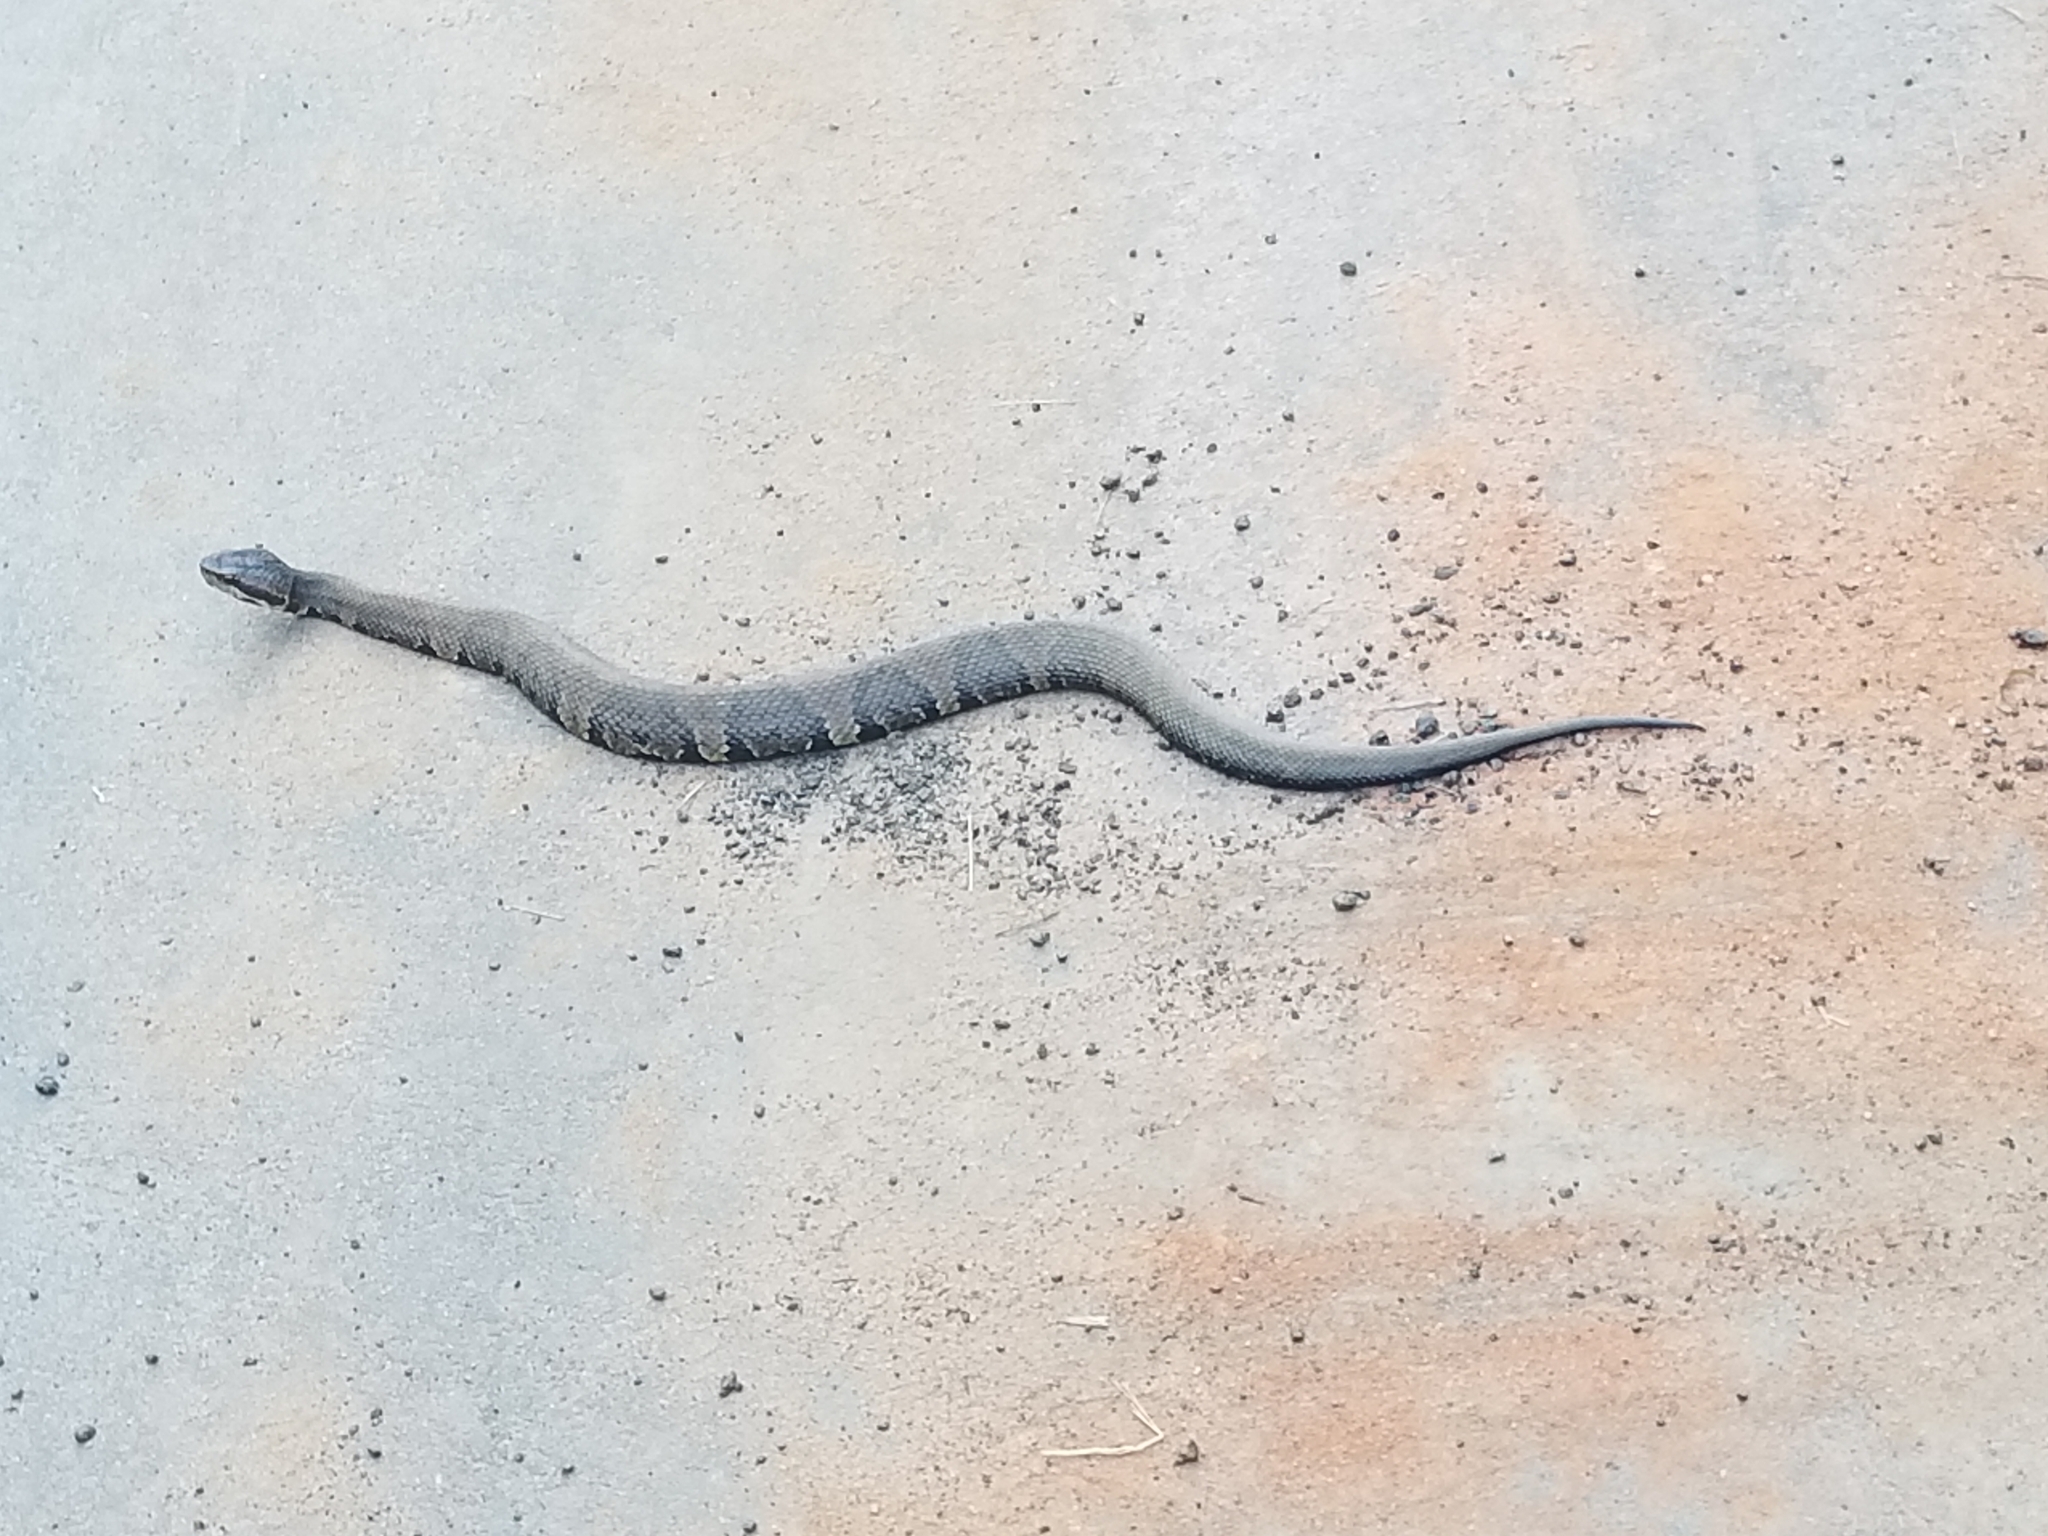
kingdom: Animalia
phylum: Chordata
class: Squamata
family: Viperidae
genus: Agkistrodon
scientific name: Agkistrodon piscivorus
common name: Cottonmouth
